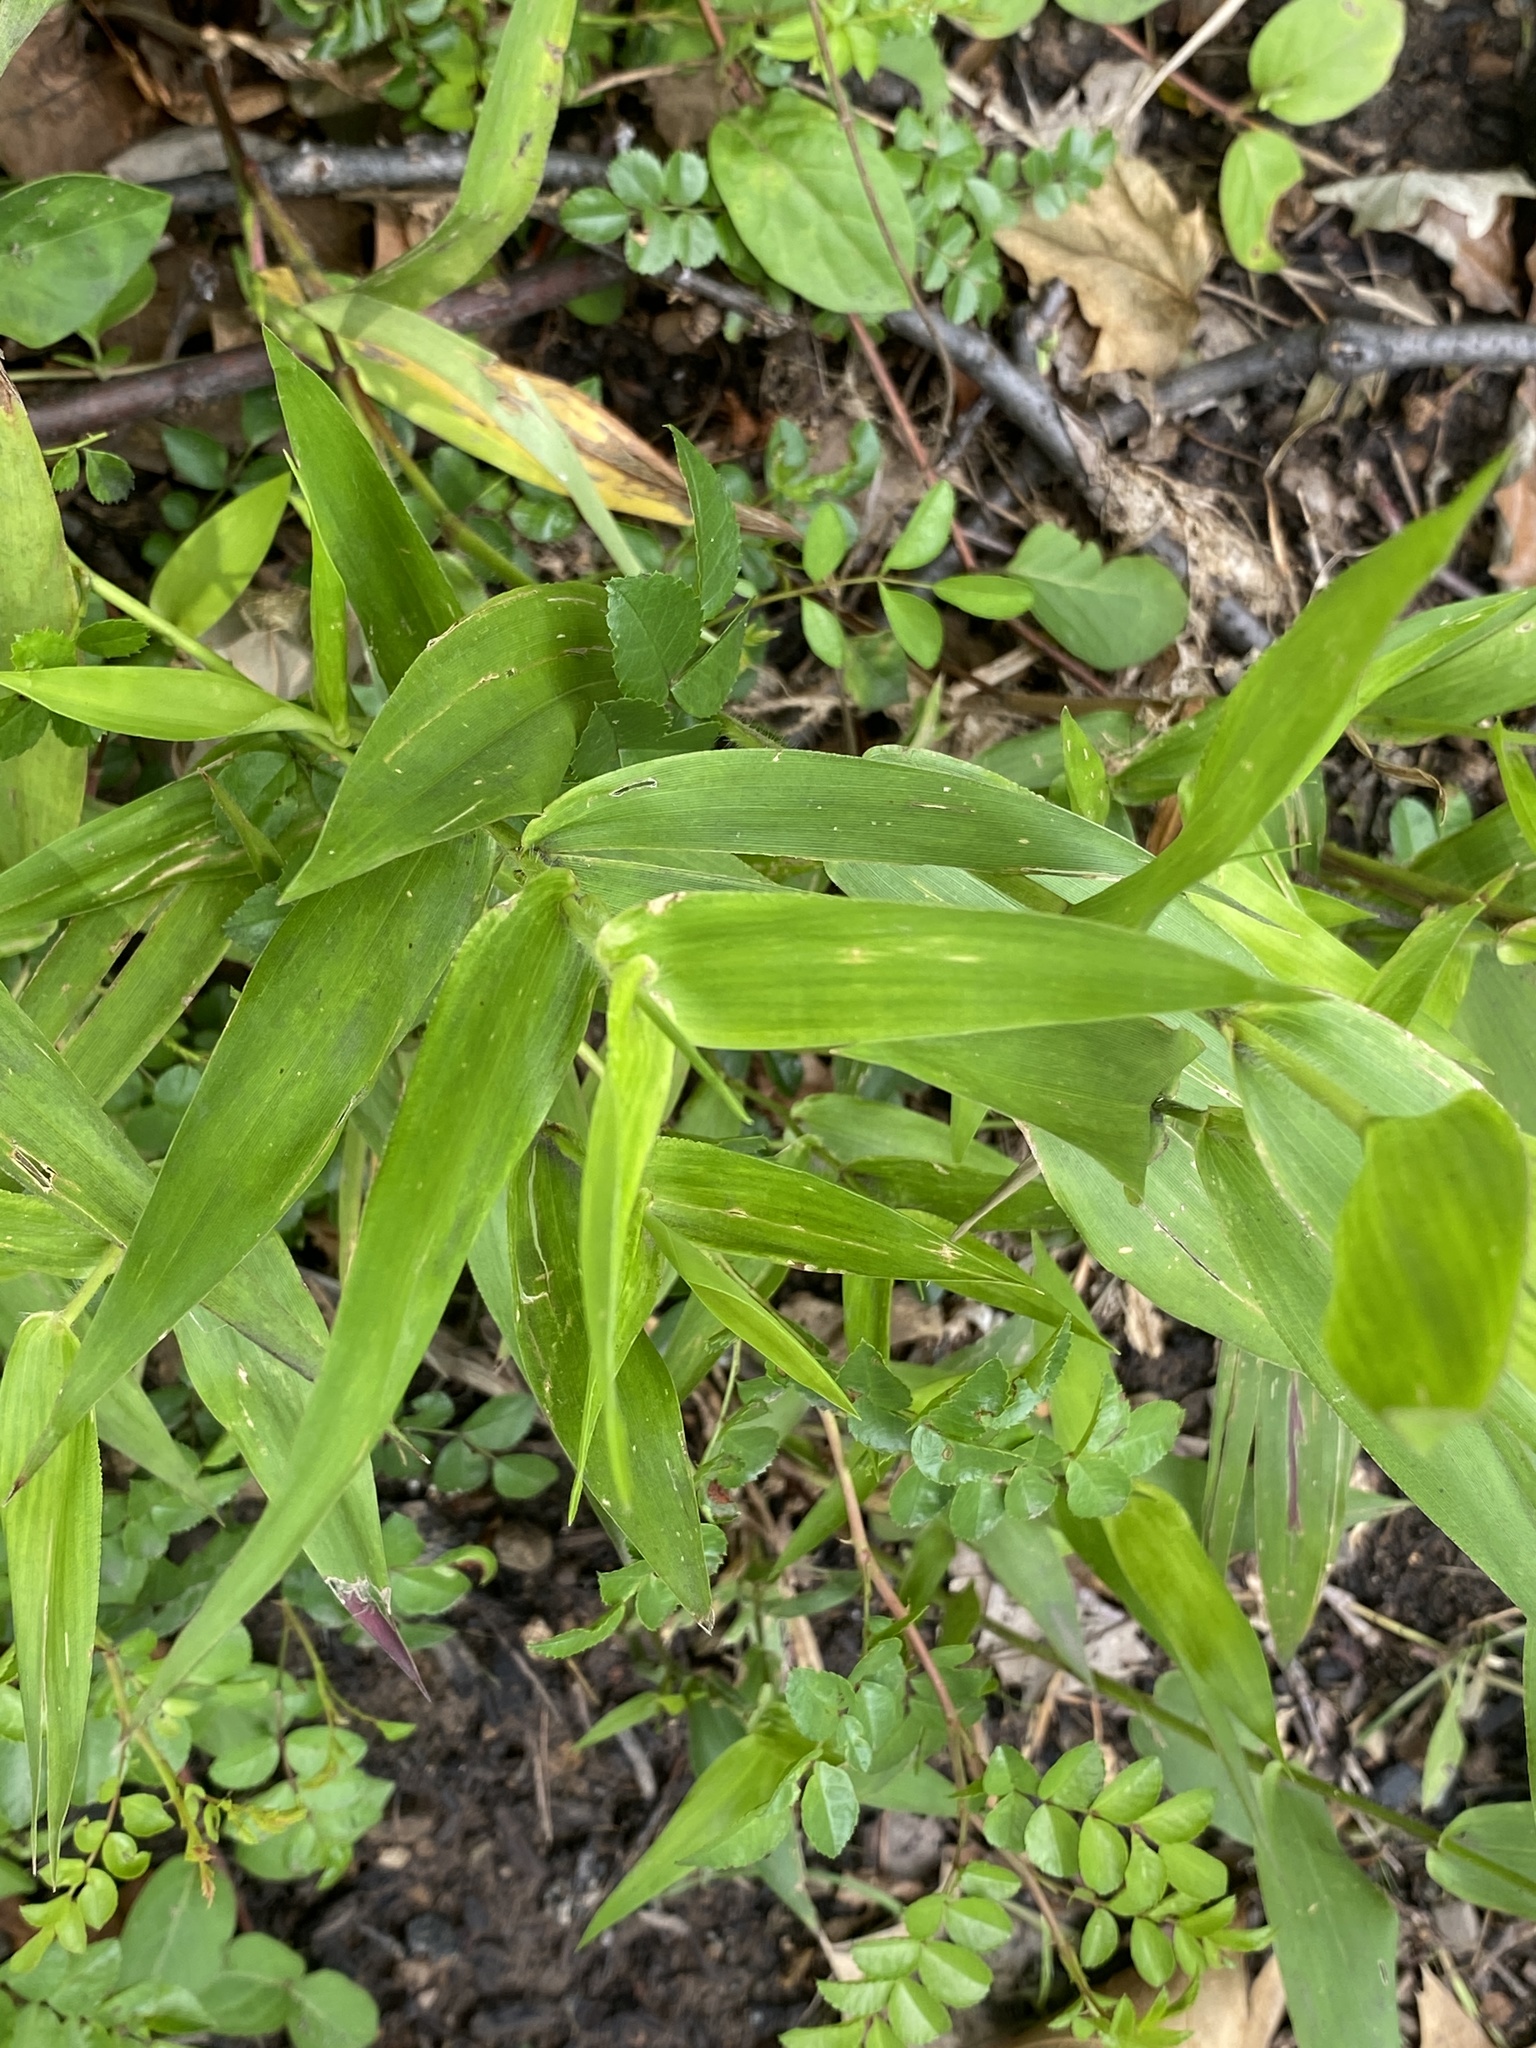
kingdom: Plantae
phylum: Tracheophyta
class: Liliopsida
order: Poales
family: Poaceae
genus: Dichanthelium
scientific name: Dichanthelium clandestinum
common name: Deer-tongue grass
